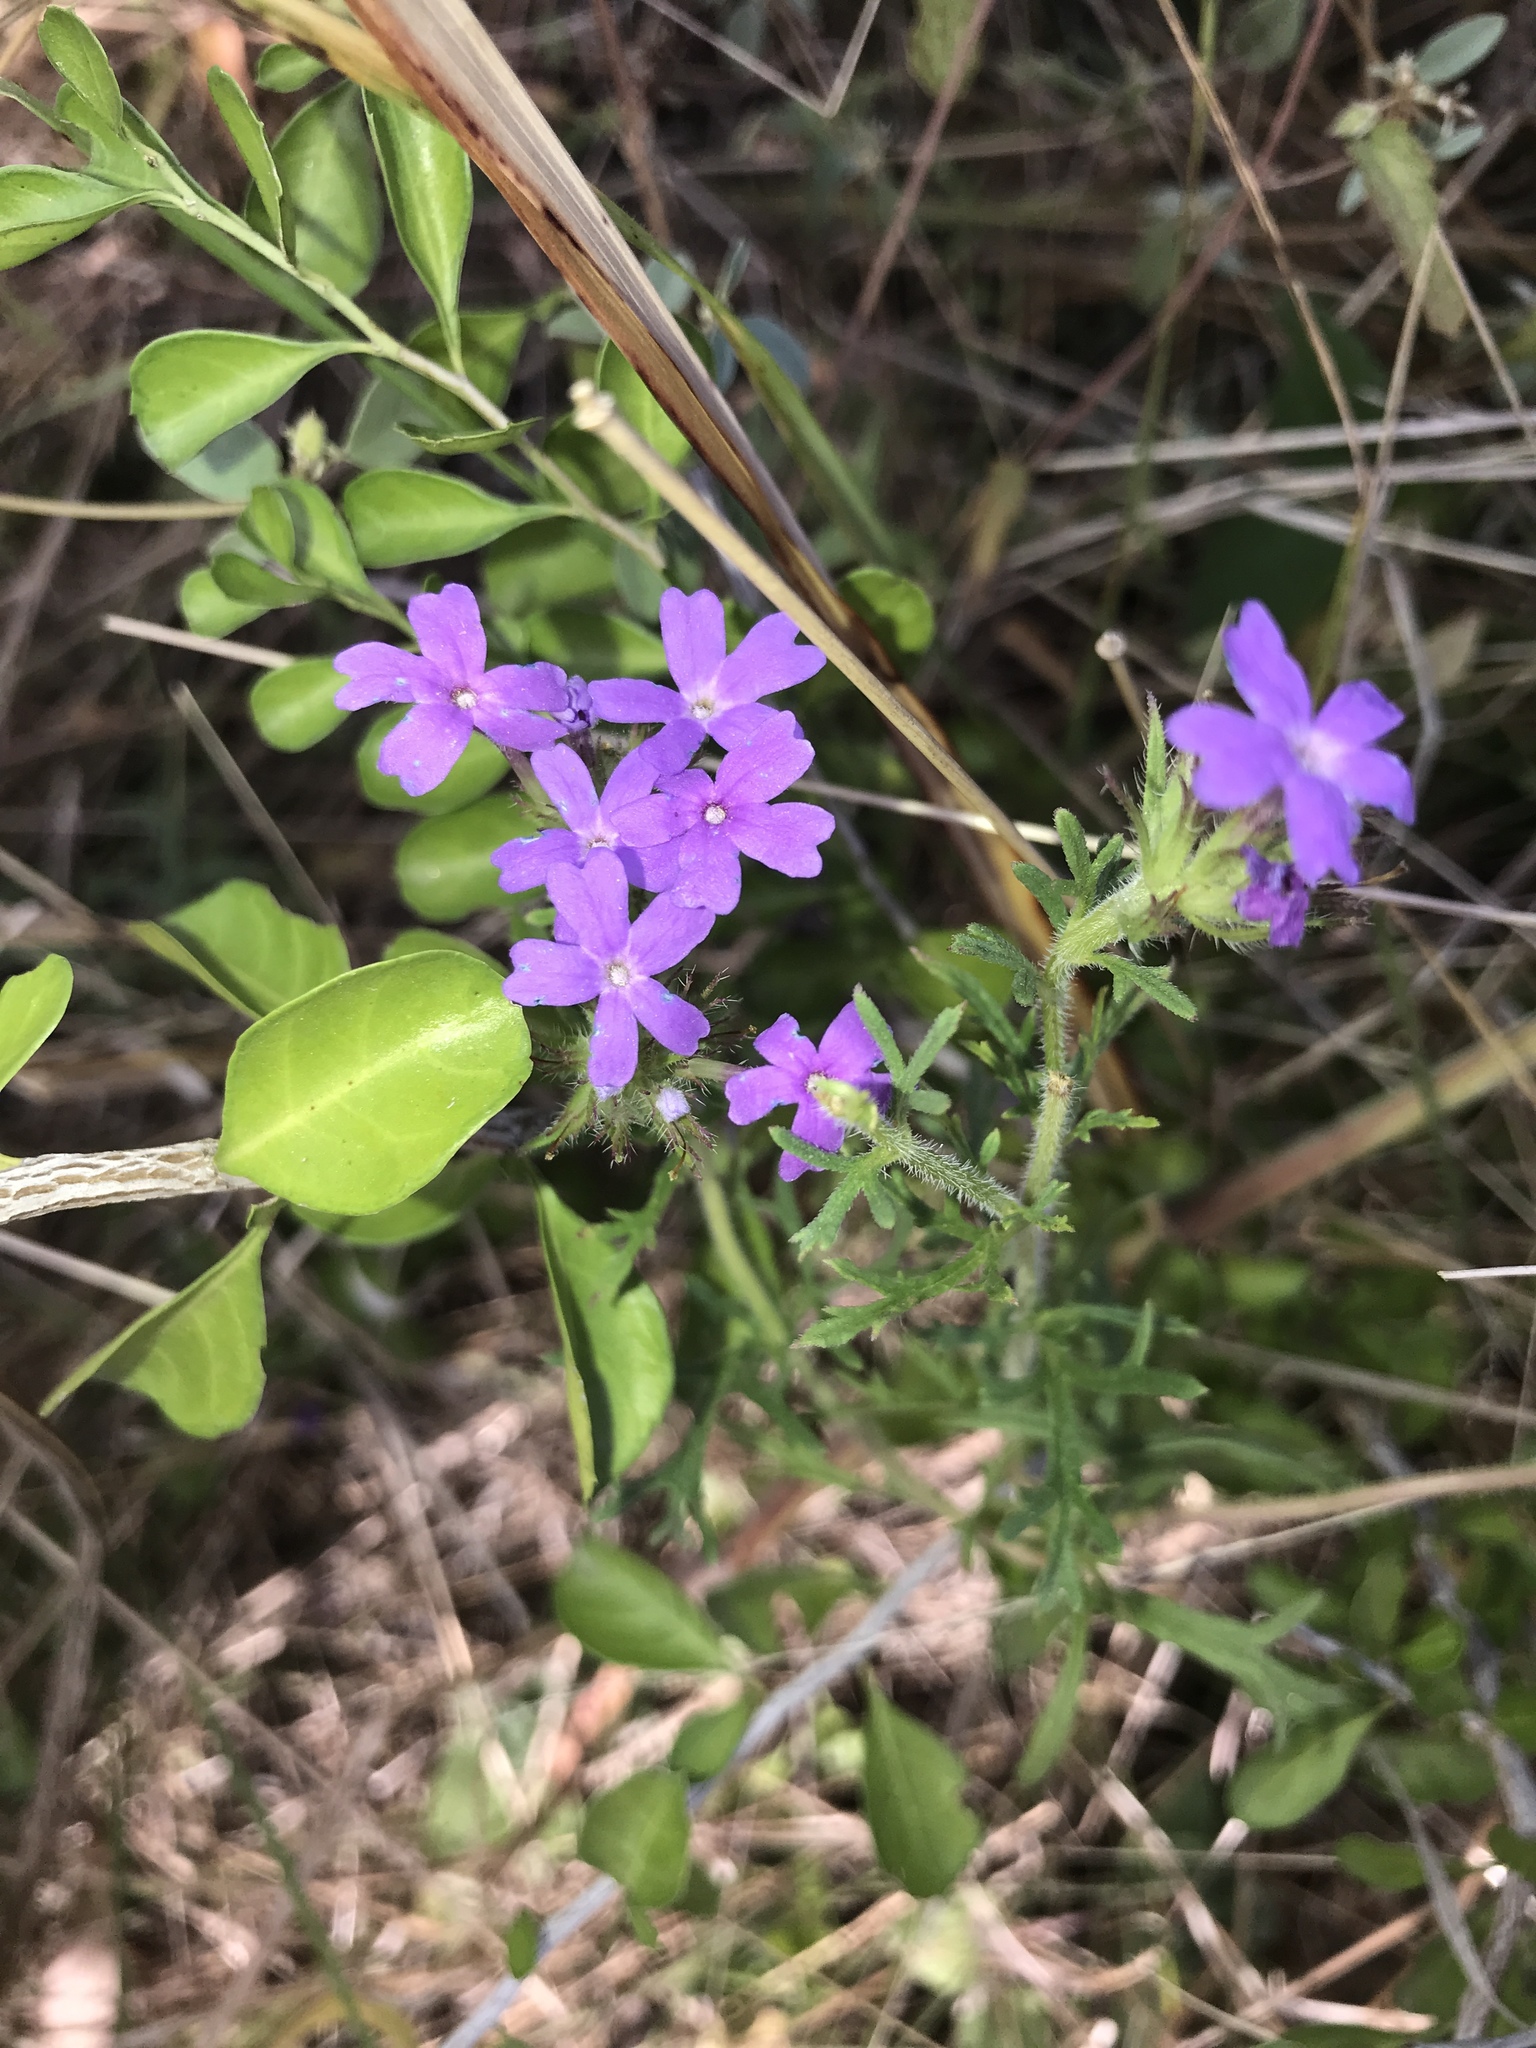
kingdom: Plantae
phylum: Tracheophyta
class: Magnoliopsida
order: Lamiales
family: Verbenaceae
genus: Verbena
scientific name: Verbena bipinnatifida
